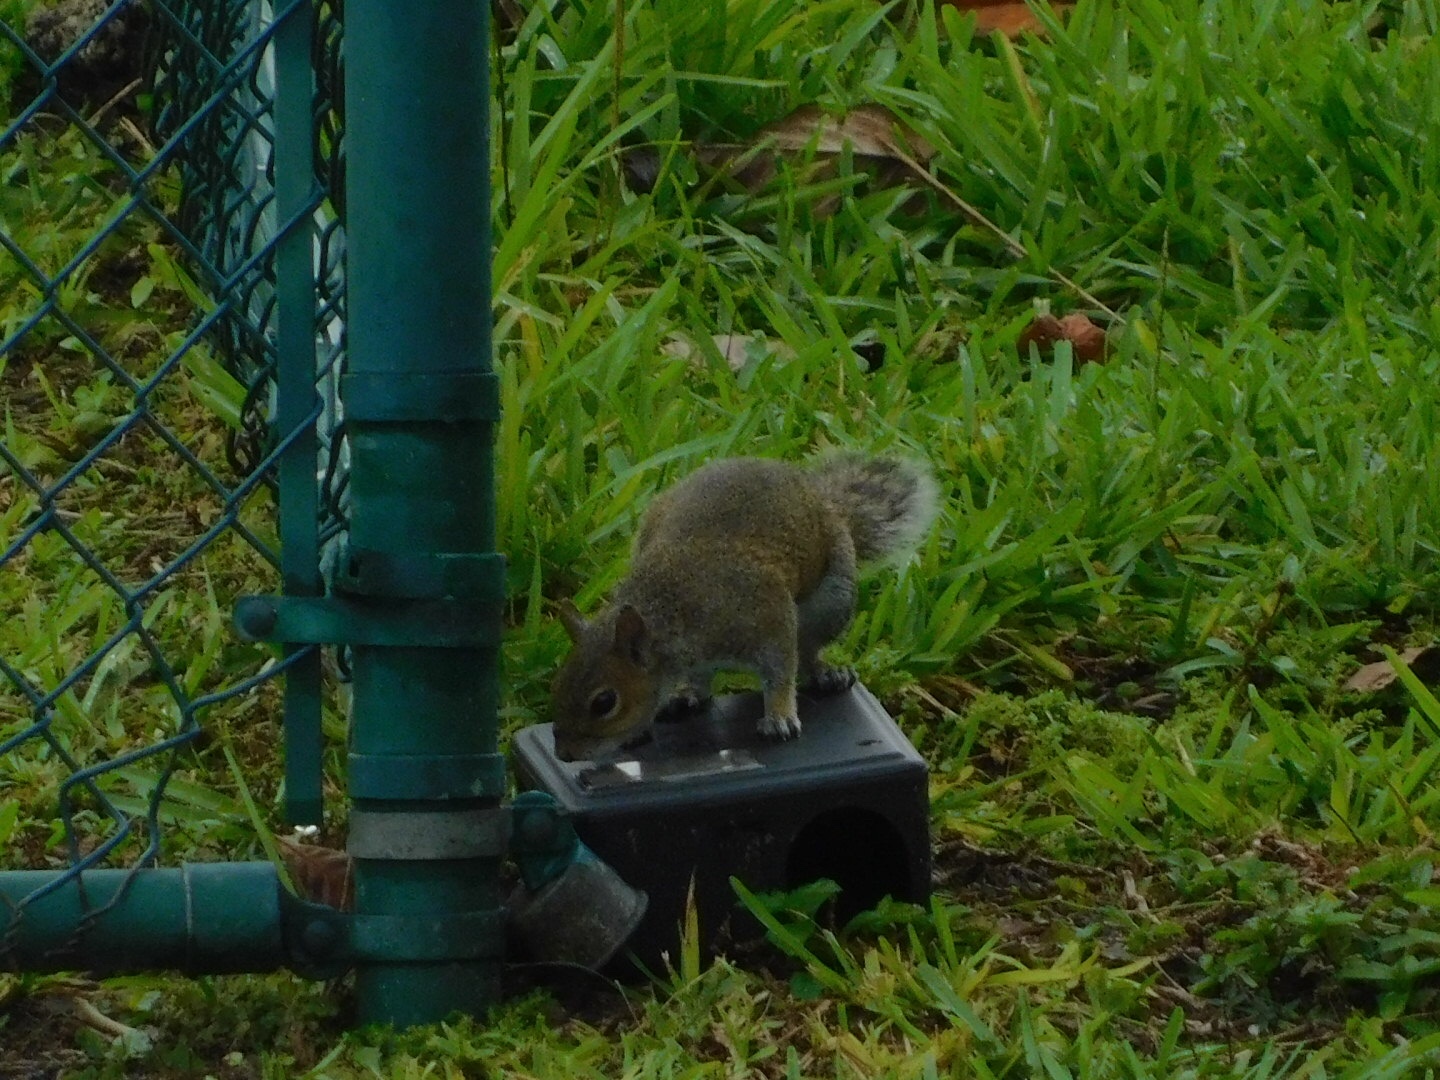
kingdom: Animalia
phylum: Chordata
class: Mammalia
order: Rodentia
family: Sciuridae
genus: Sciurus
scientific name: Sciurus carolinensis
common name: Eastern gray squirrel
